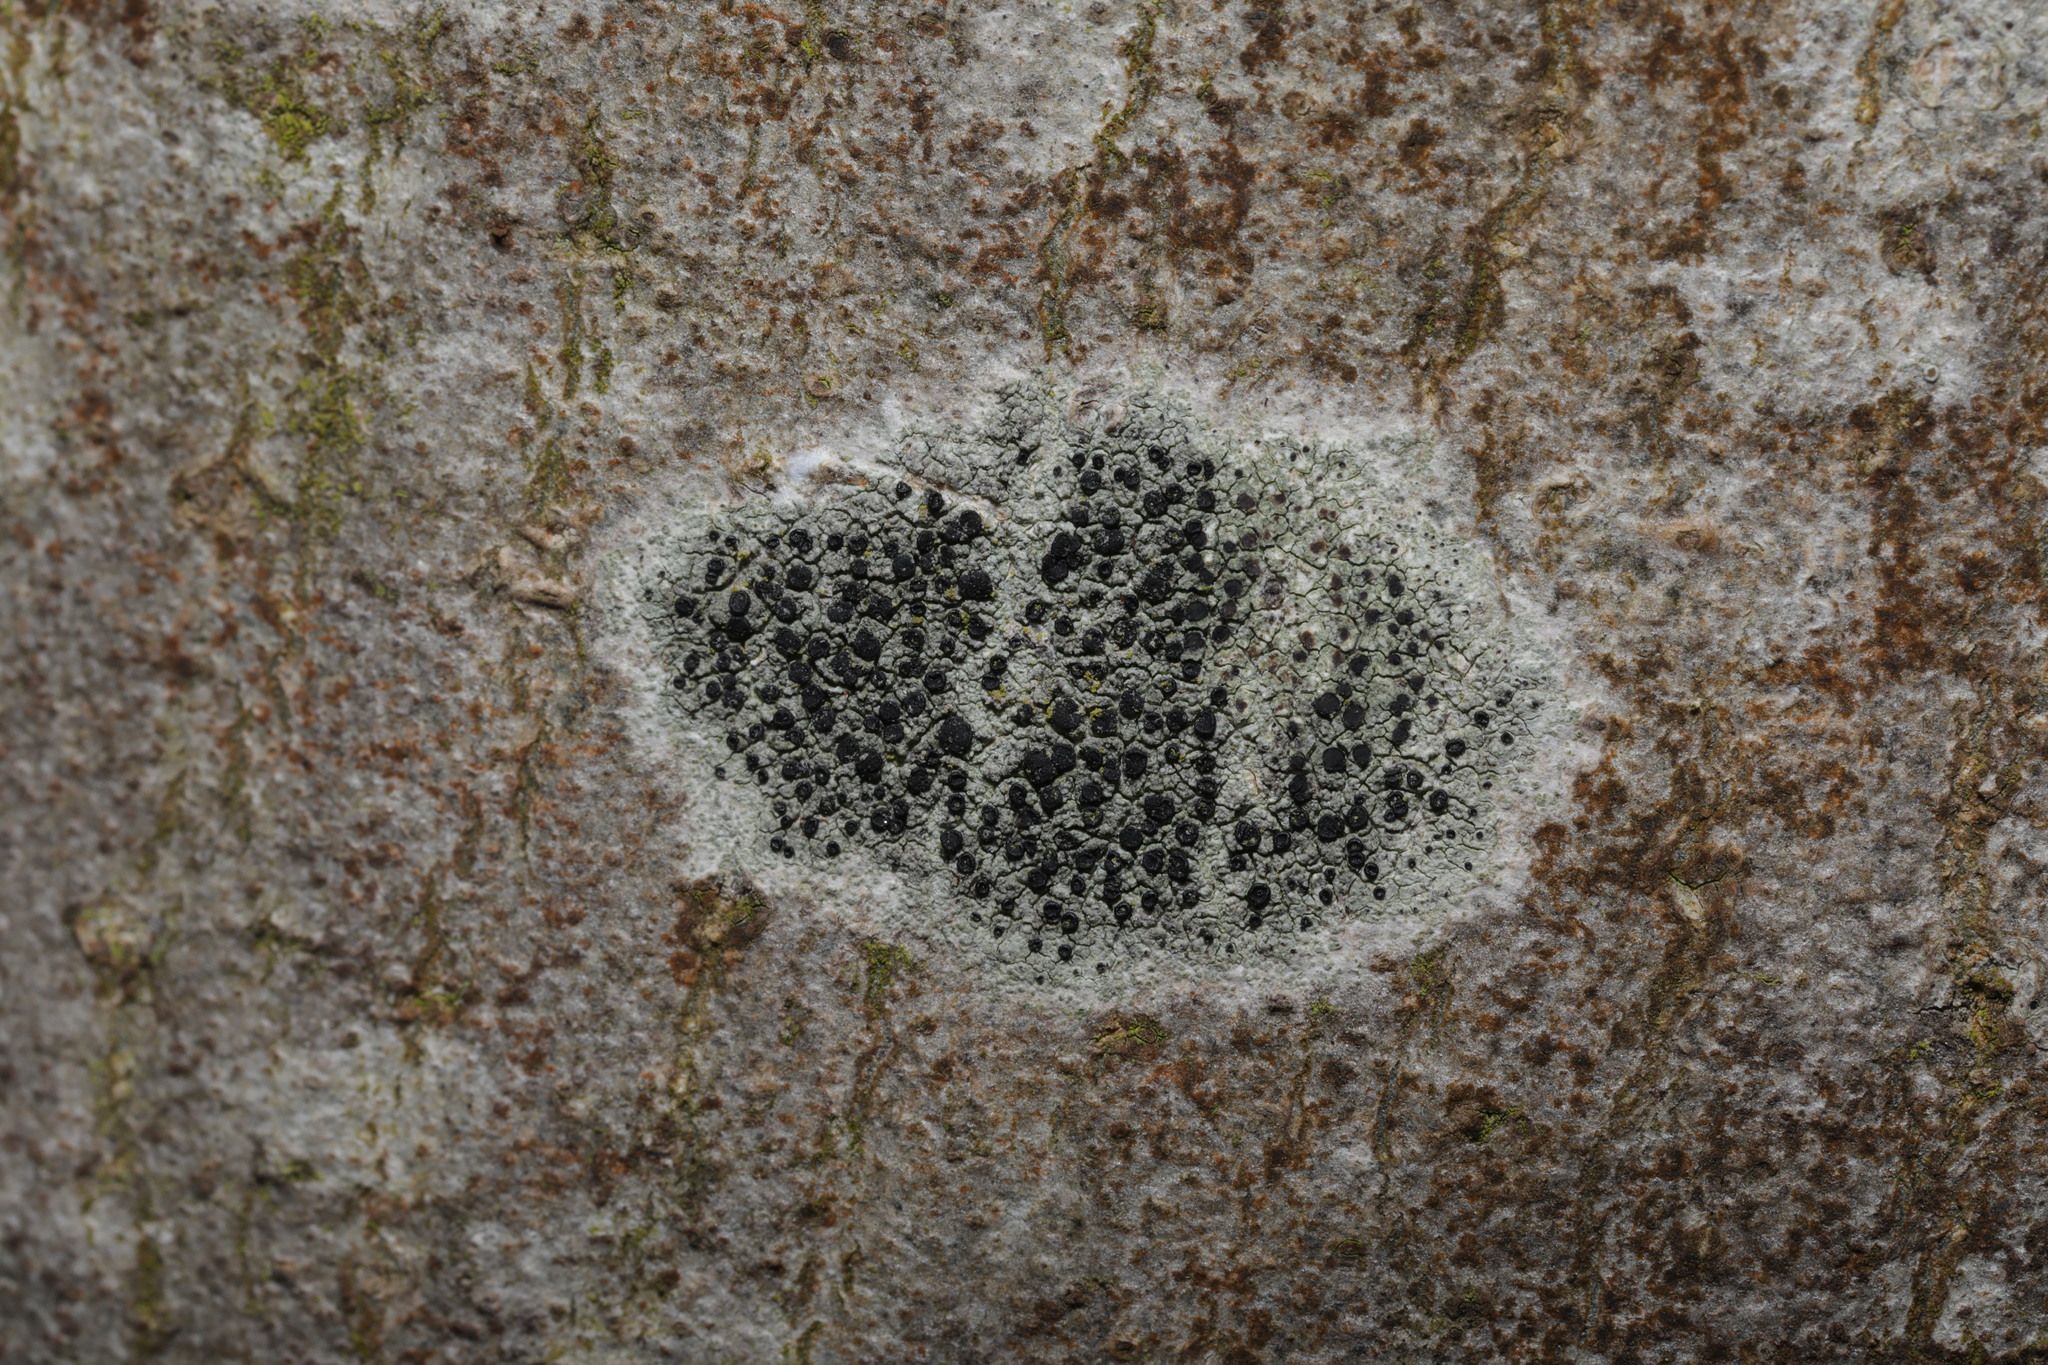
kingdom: Fungi
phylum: Ascomycota
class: Lecanoromycetes
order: Lecanorales
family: Lecanoraceae
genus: Lecidella
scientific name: Lecidella elaeochroma
